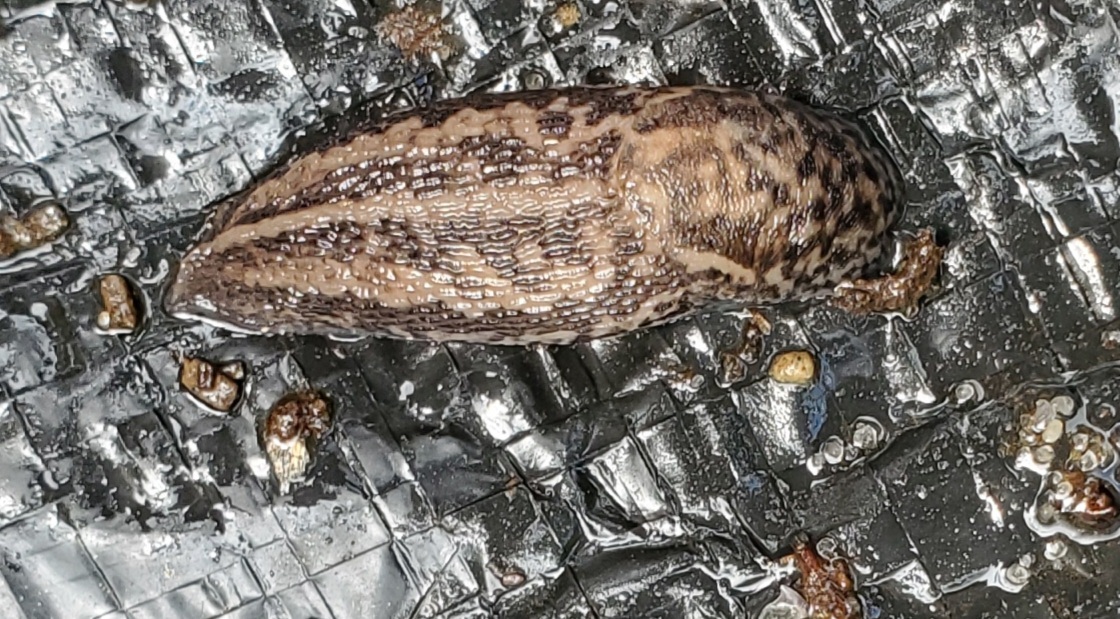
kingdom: Animalia
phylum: Mollusca
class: Gastropoda
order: Stylommatophora
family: Limacidae
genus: Limax
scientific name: Limax maximus
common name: Great grey slug
